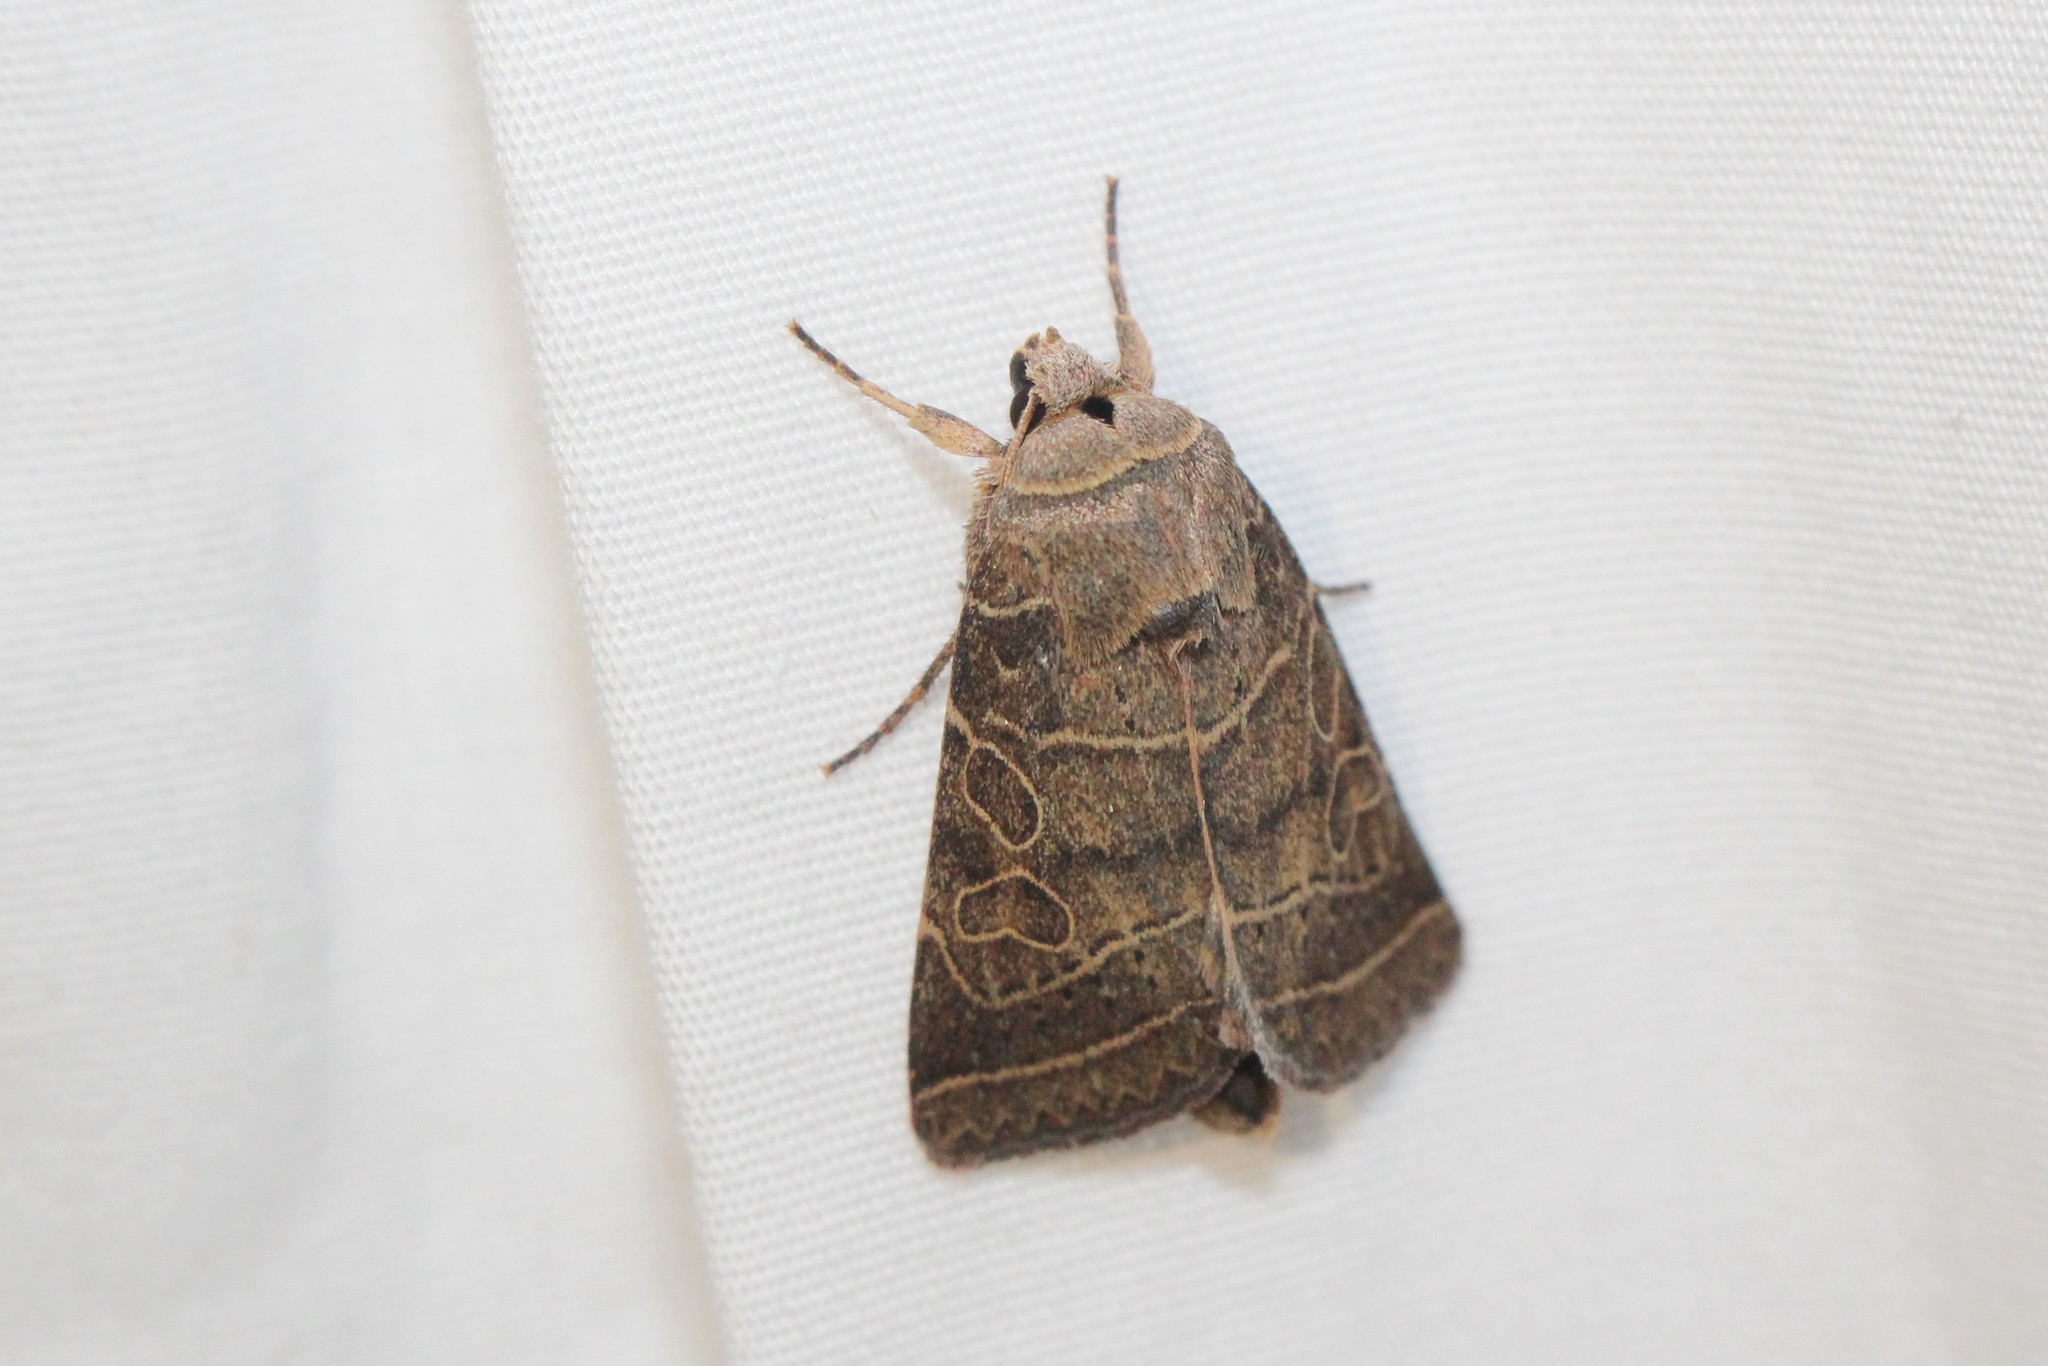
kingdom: Animalia
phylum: Arthropoda
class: Insecta
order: Lepidoptera
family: Noctuidae
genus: Orthodes
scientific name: Orthodes majuscula
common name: Rustic quaker
